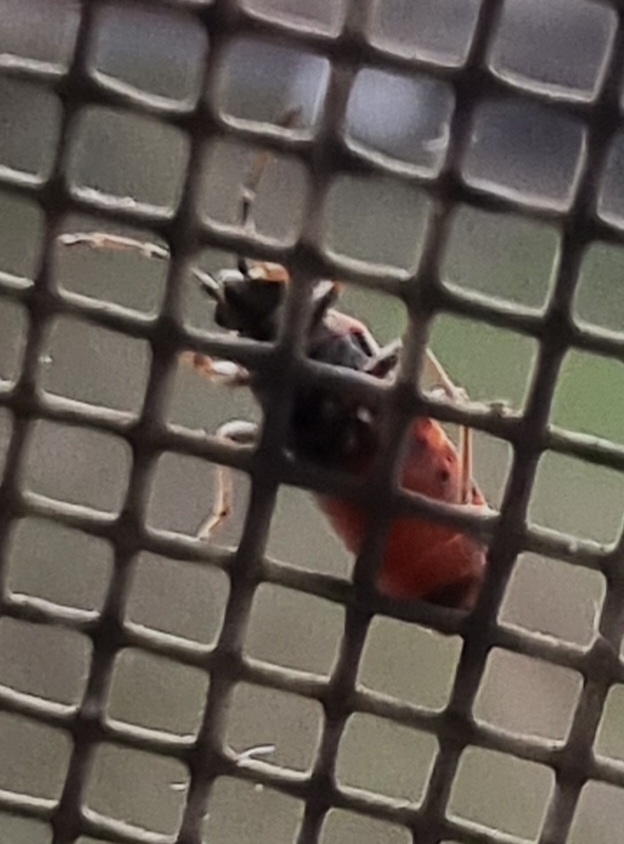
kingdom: Animalia
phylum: Arthropoda
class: Insecta
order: Hemiptera
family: Lygaeidae
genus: Arocatus
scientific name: Arocatus melanocephalus
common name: Lygaeid bug
